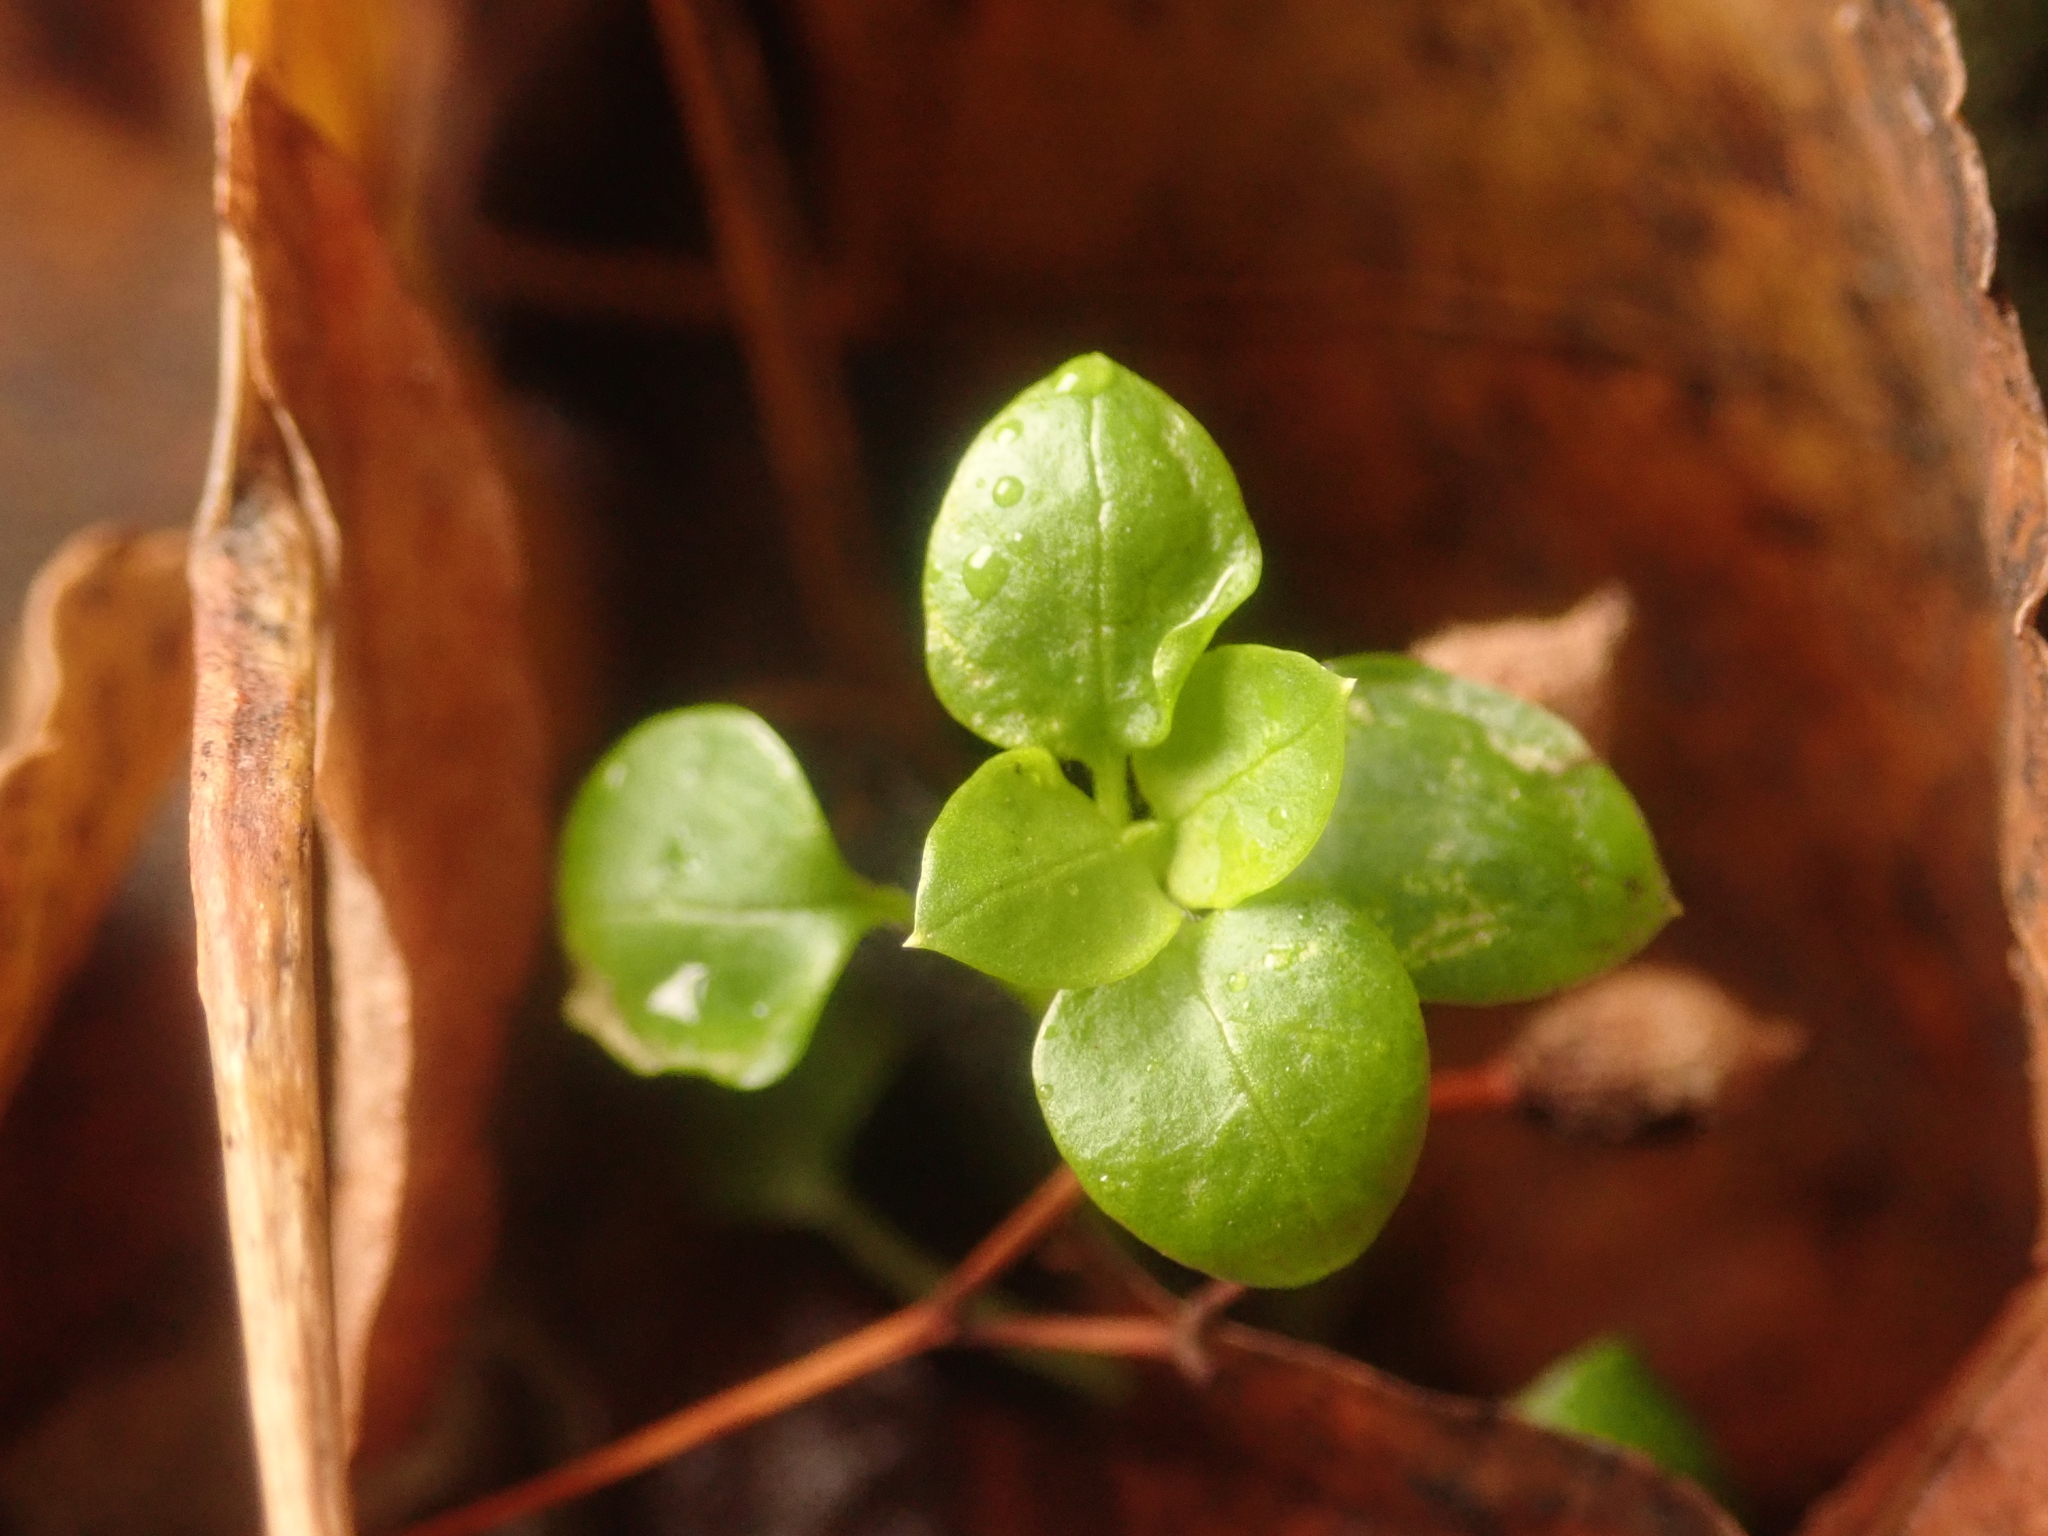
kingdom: Plantae
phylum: Tracheophyta
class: Magnoliopsida
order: Caryophyllales
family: Caryophyllaceae
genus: Stellaria
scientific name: Stellaria media
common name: Common chickweed
